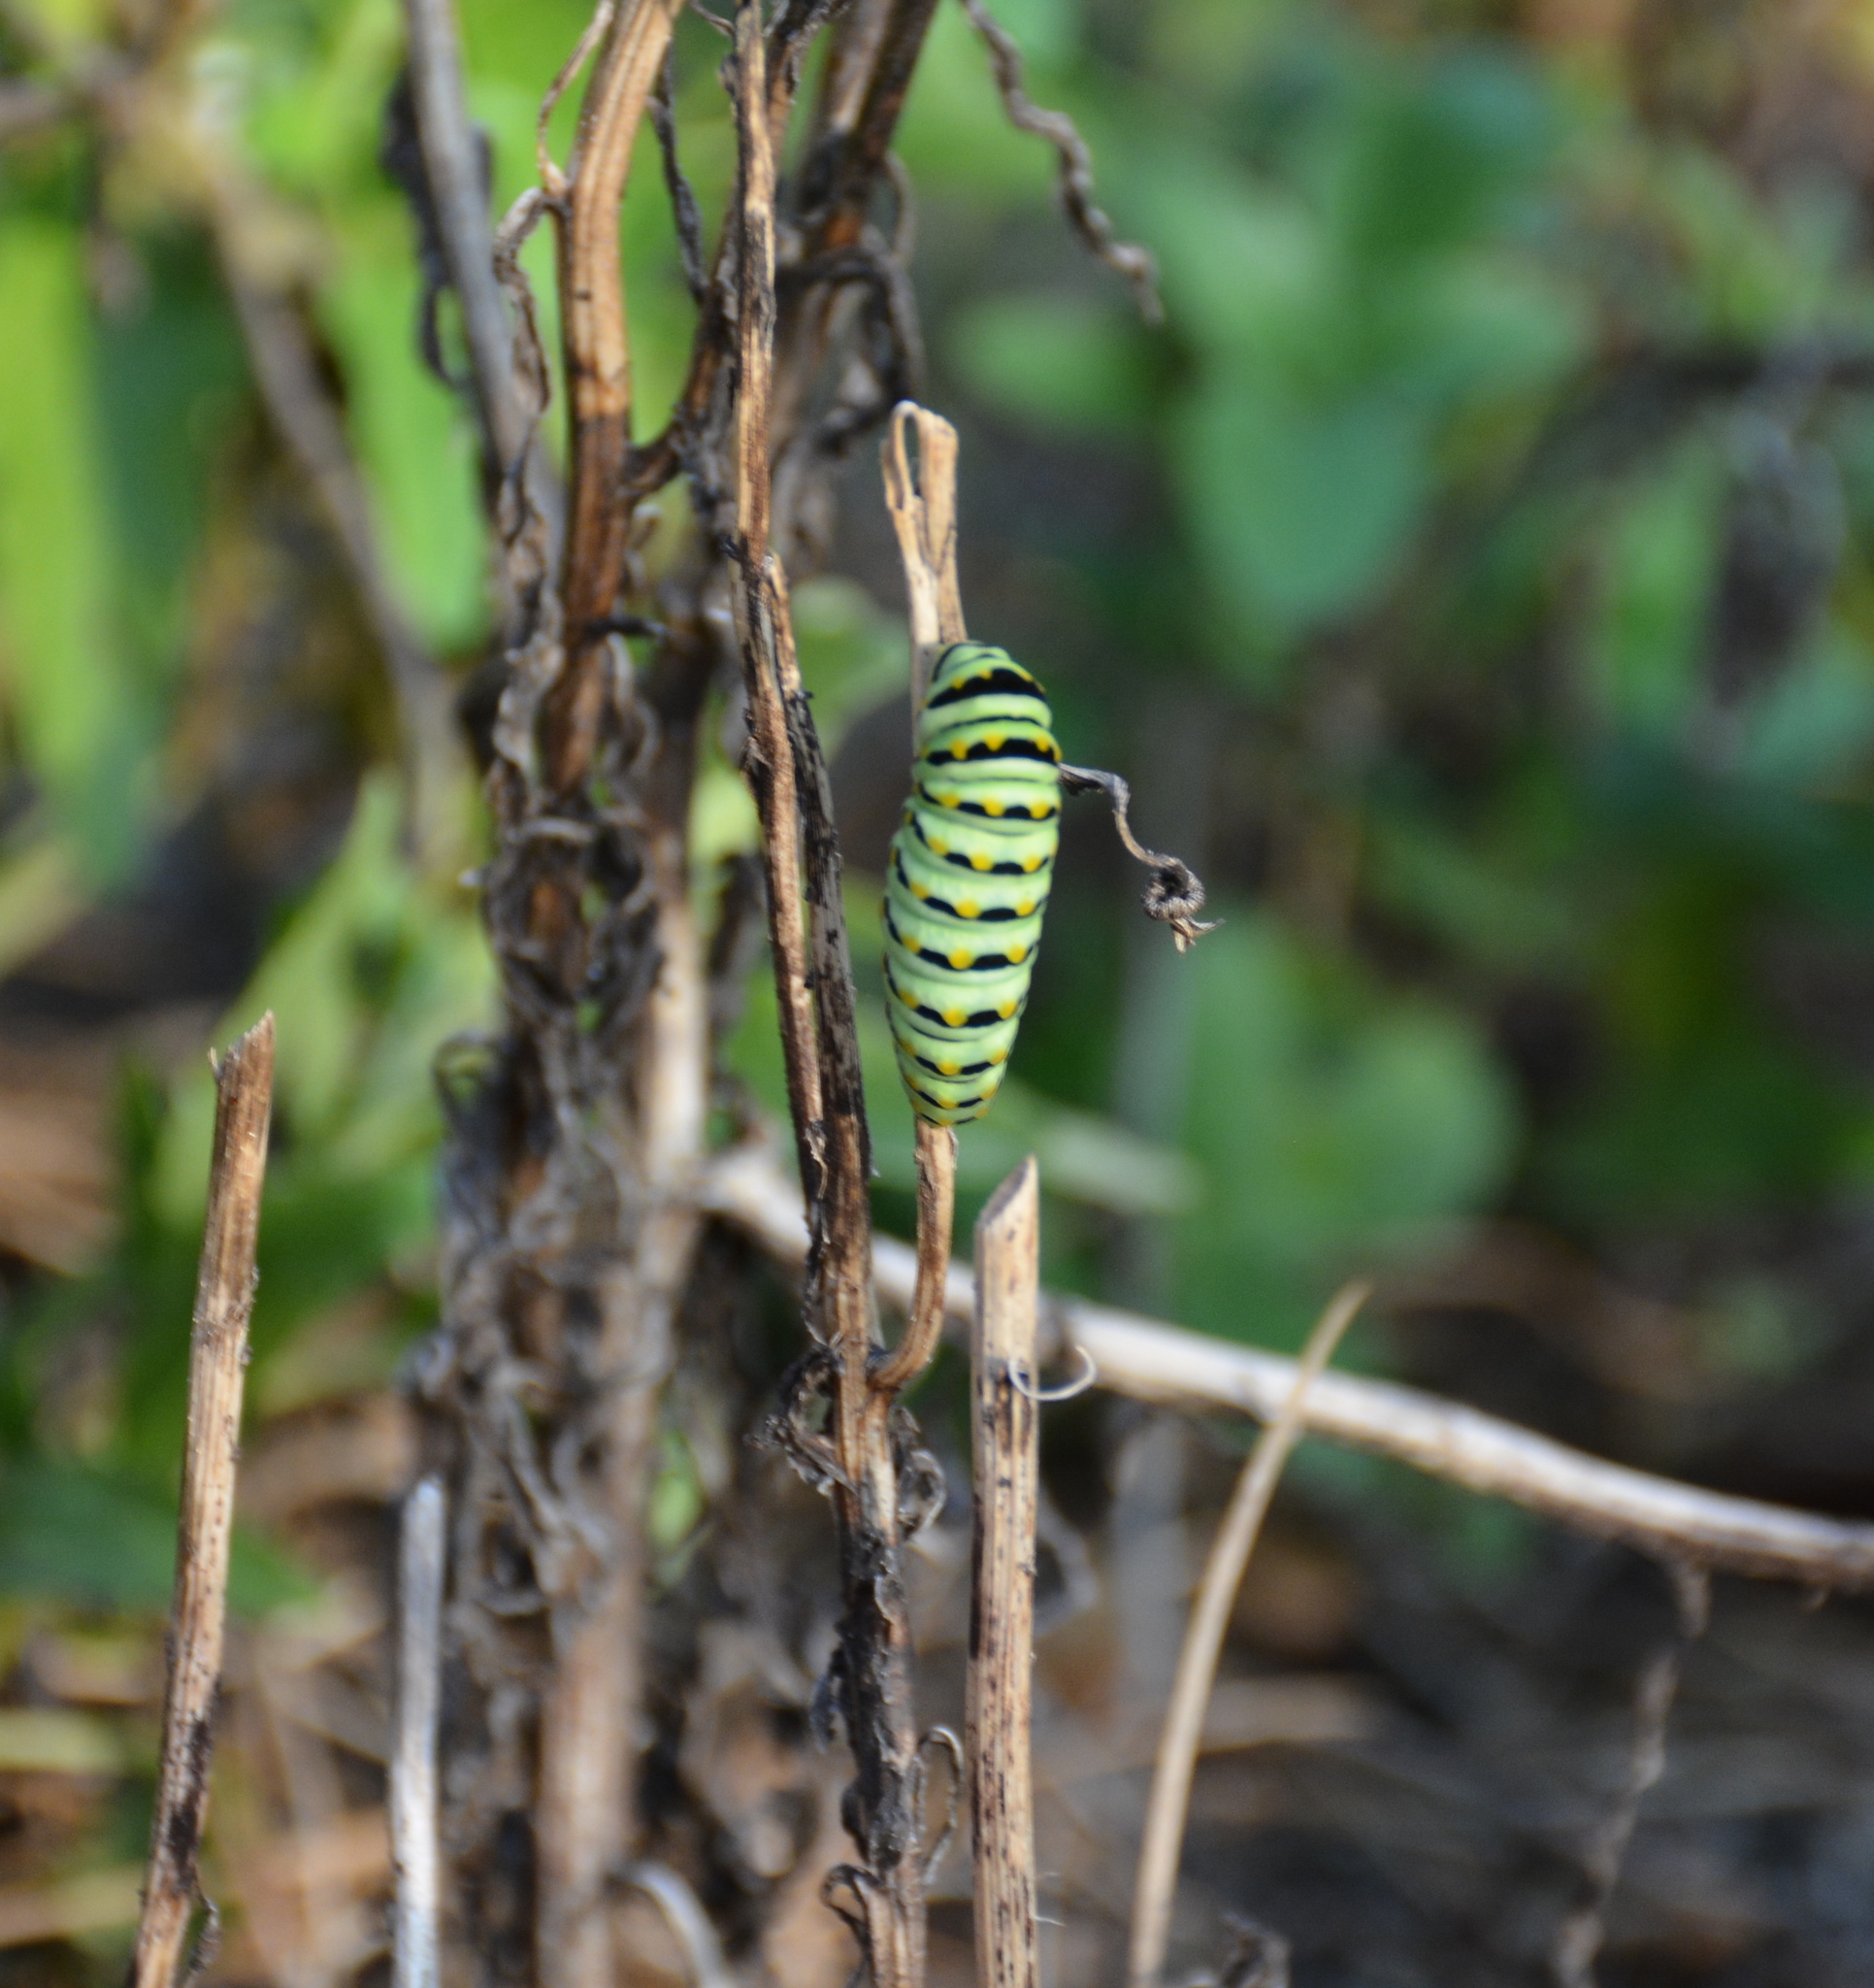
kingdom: Animalia
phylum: Arthropoda
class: Insecta
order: Lepidoptera
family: Papilionidae
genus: Papilio
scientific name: Papilio polyxenes
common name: Black swallowtail
